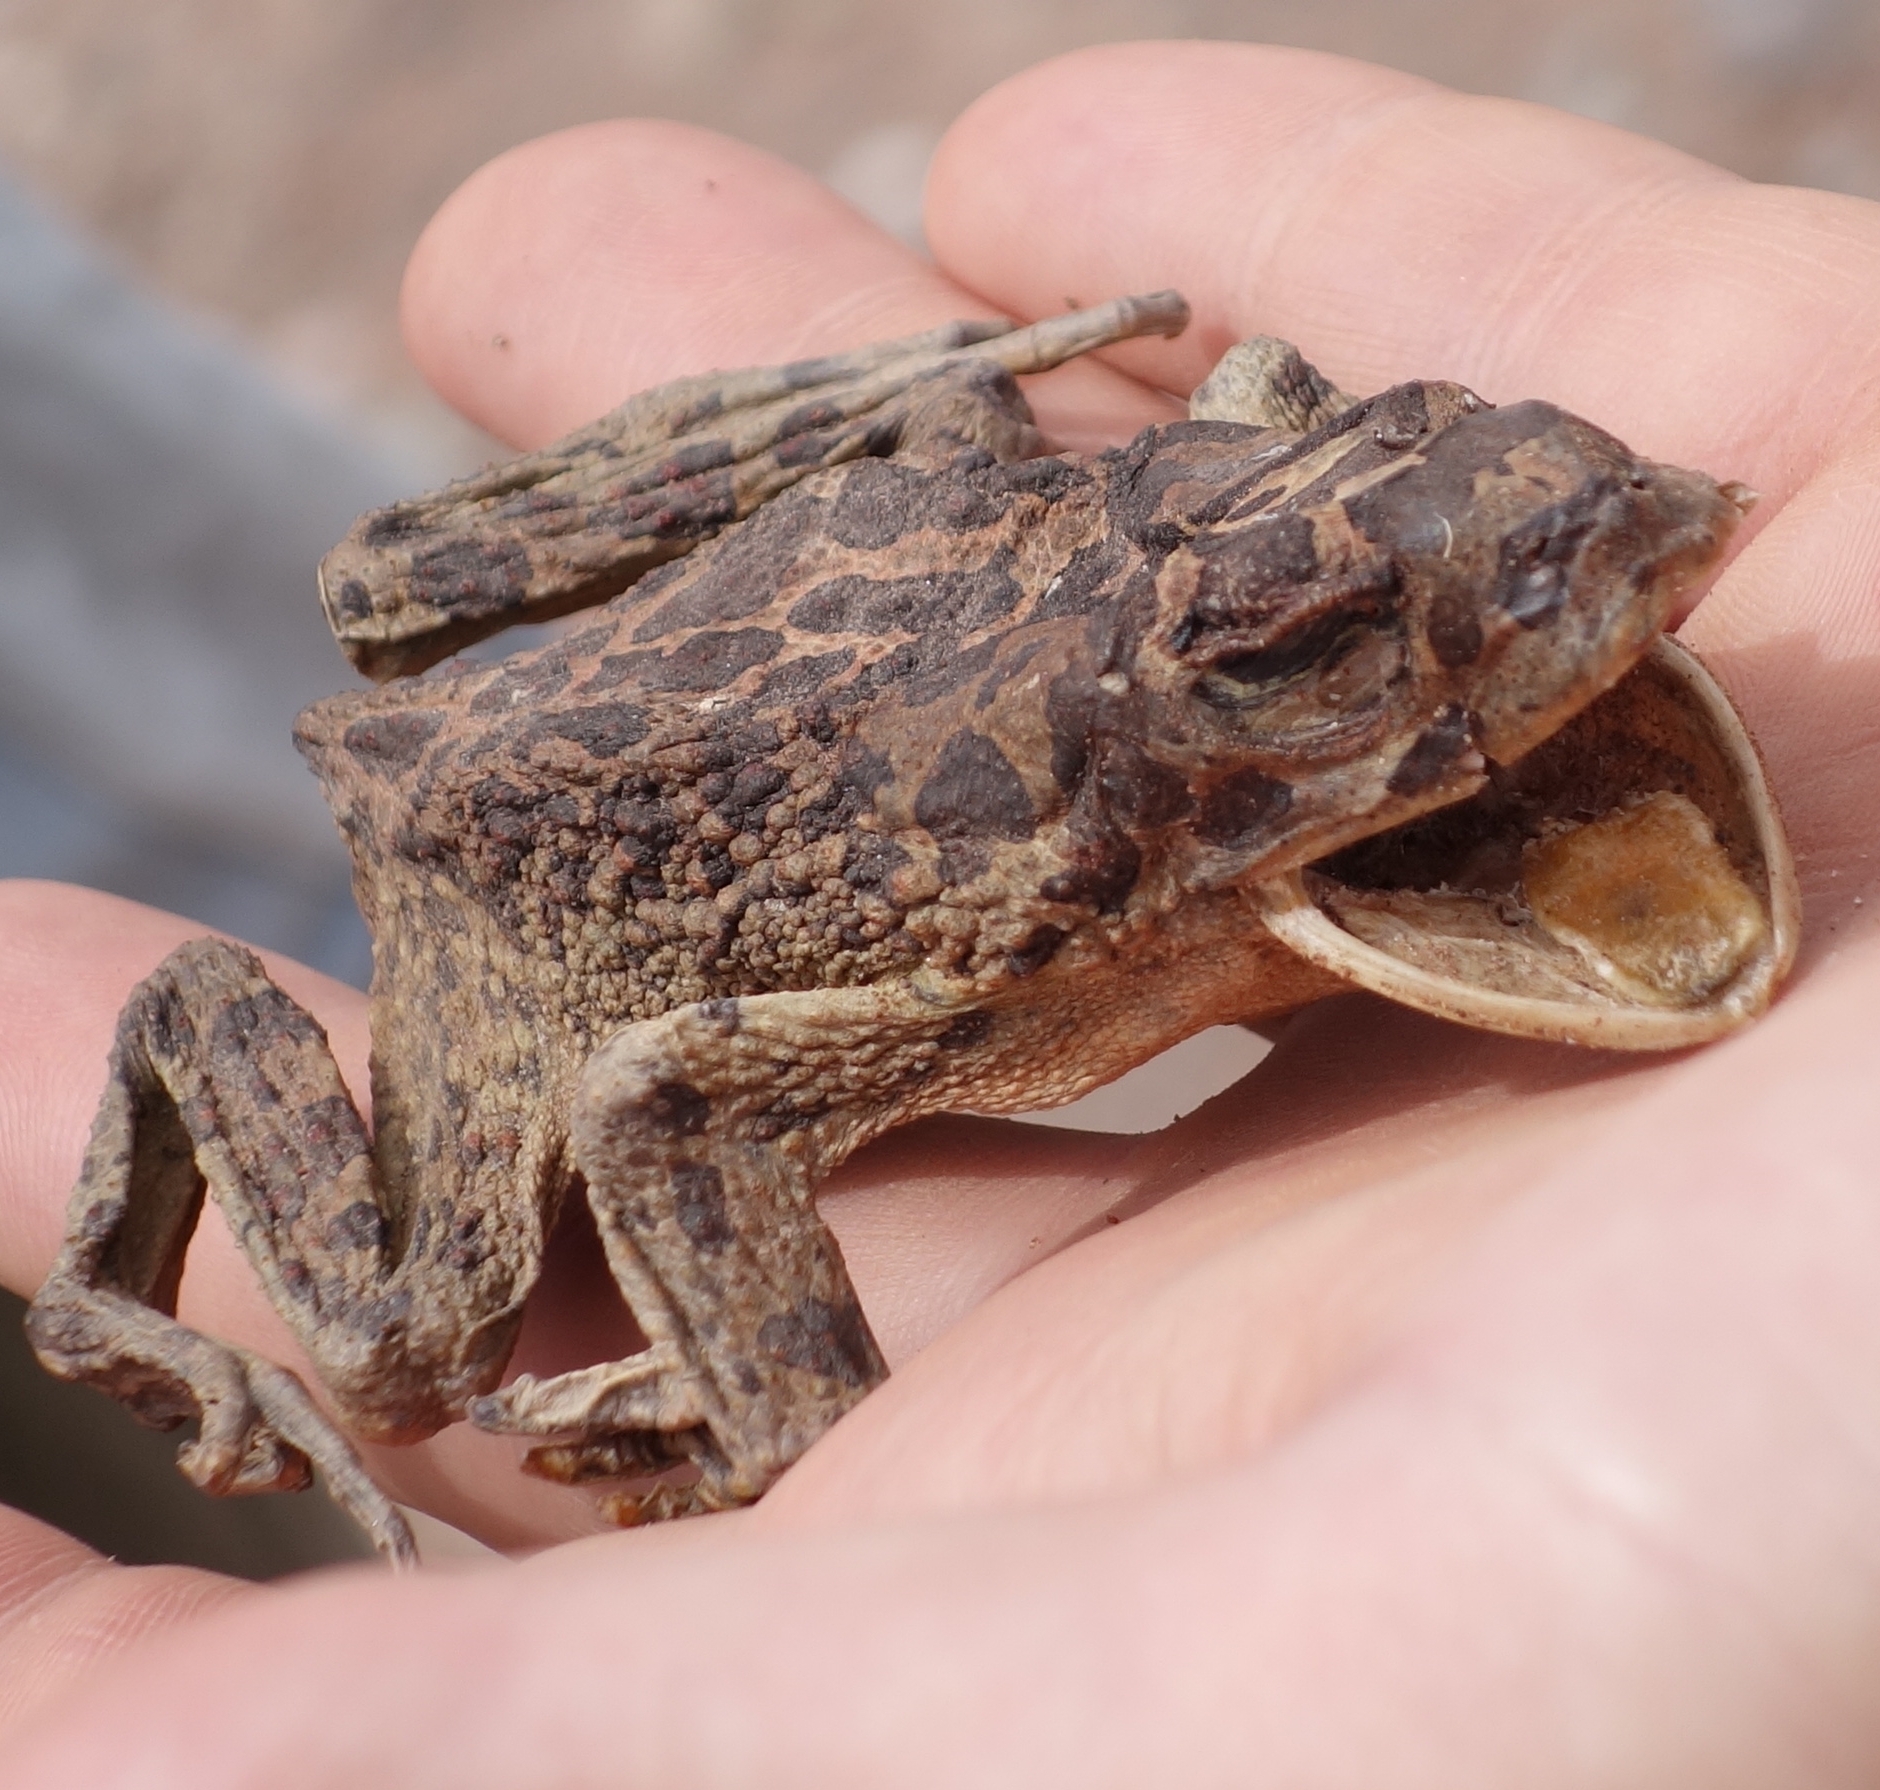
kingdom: Animalia
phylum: Chordata
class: Amphibia
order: Anura
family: Bufonidae
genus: Sclerophrys
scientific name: Sclerophrys mauritanica
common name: Berber toad
